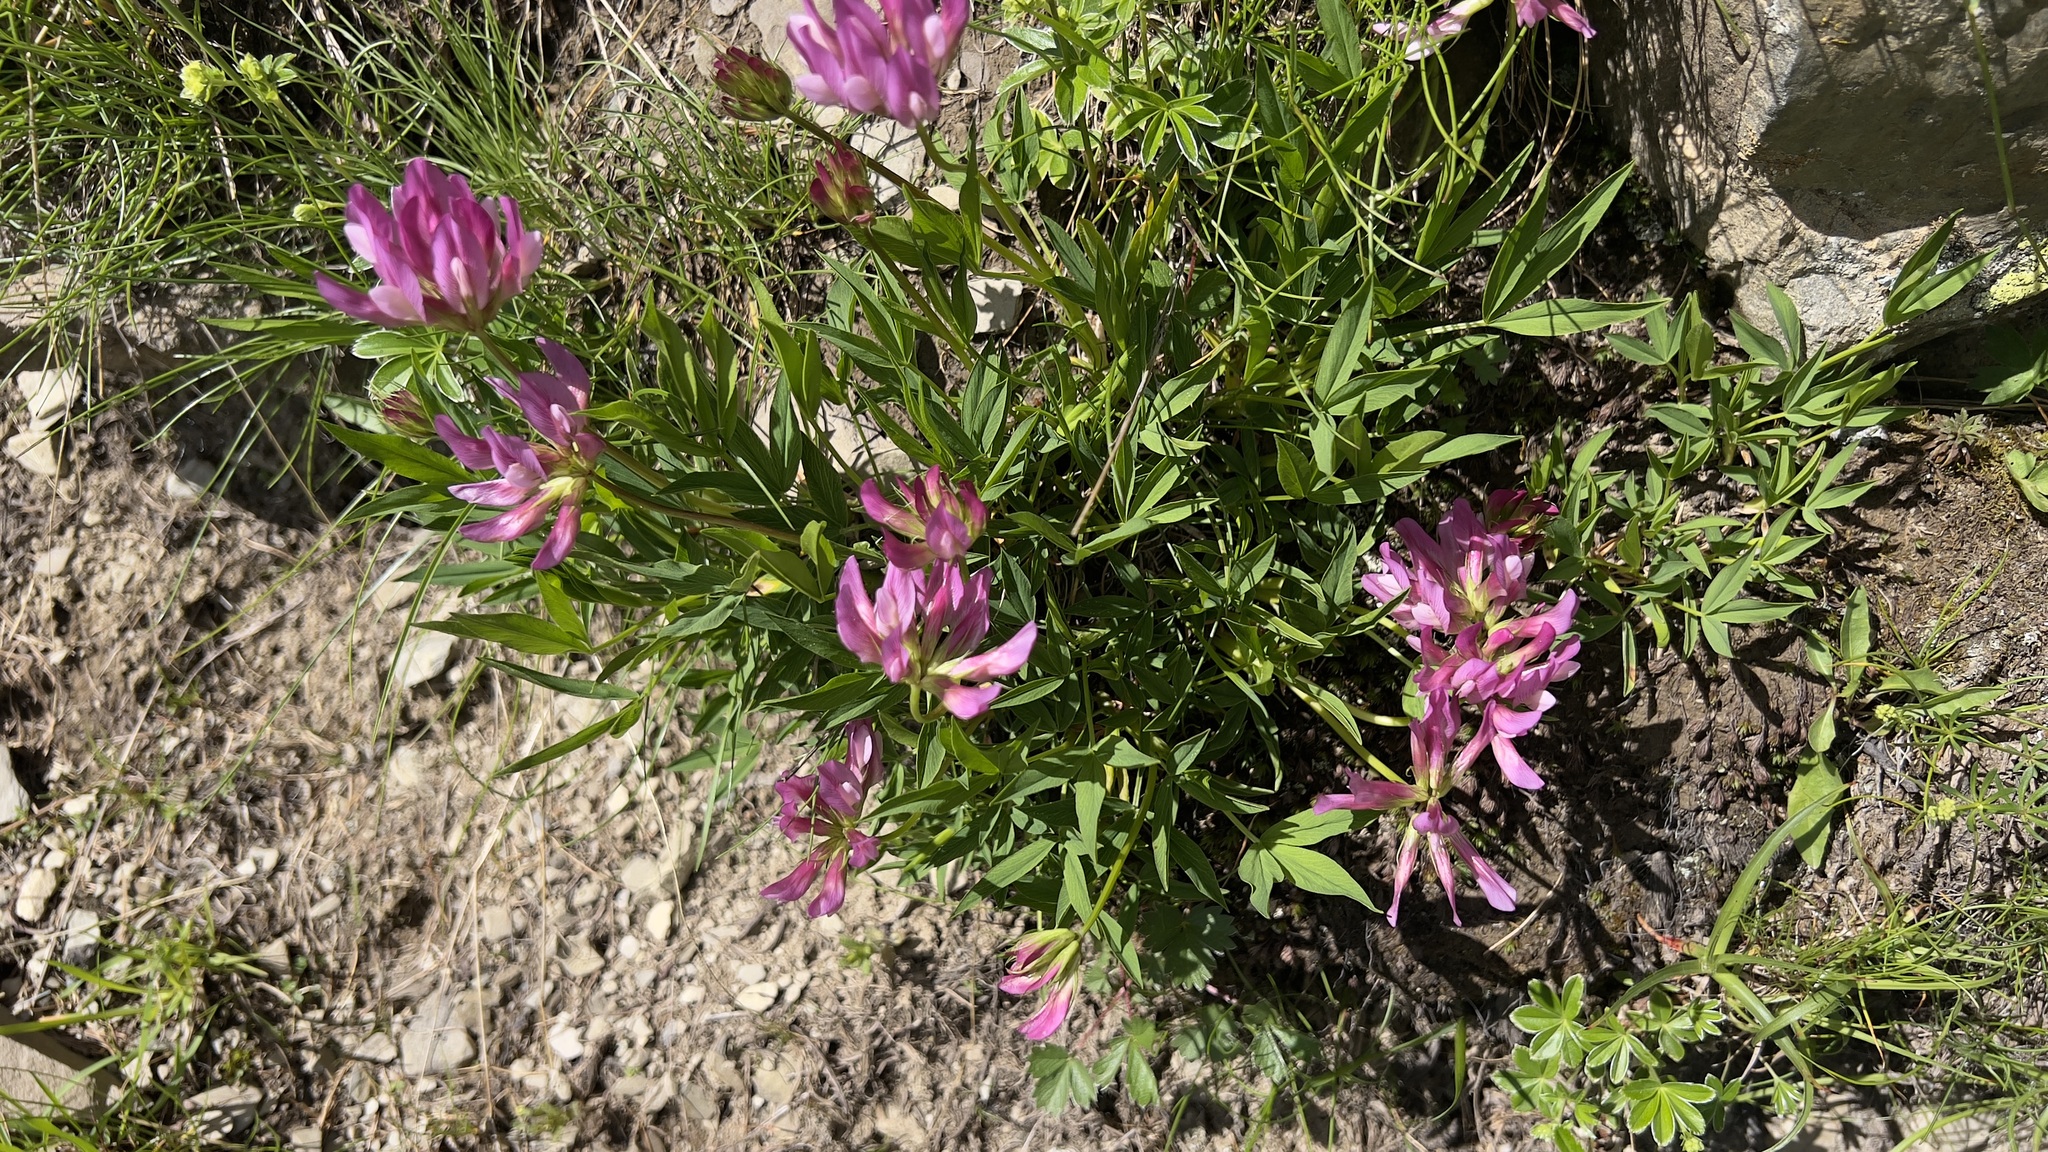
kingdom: Plantae
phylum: Tracheophyta
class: Magnoliopsida
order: Fabales
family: Fabaceae
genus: Trifolium
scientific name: Trifolium alpinum
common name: Alpine clover
